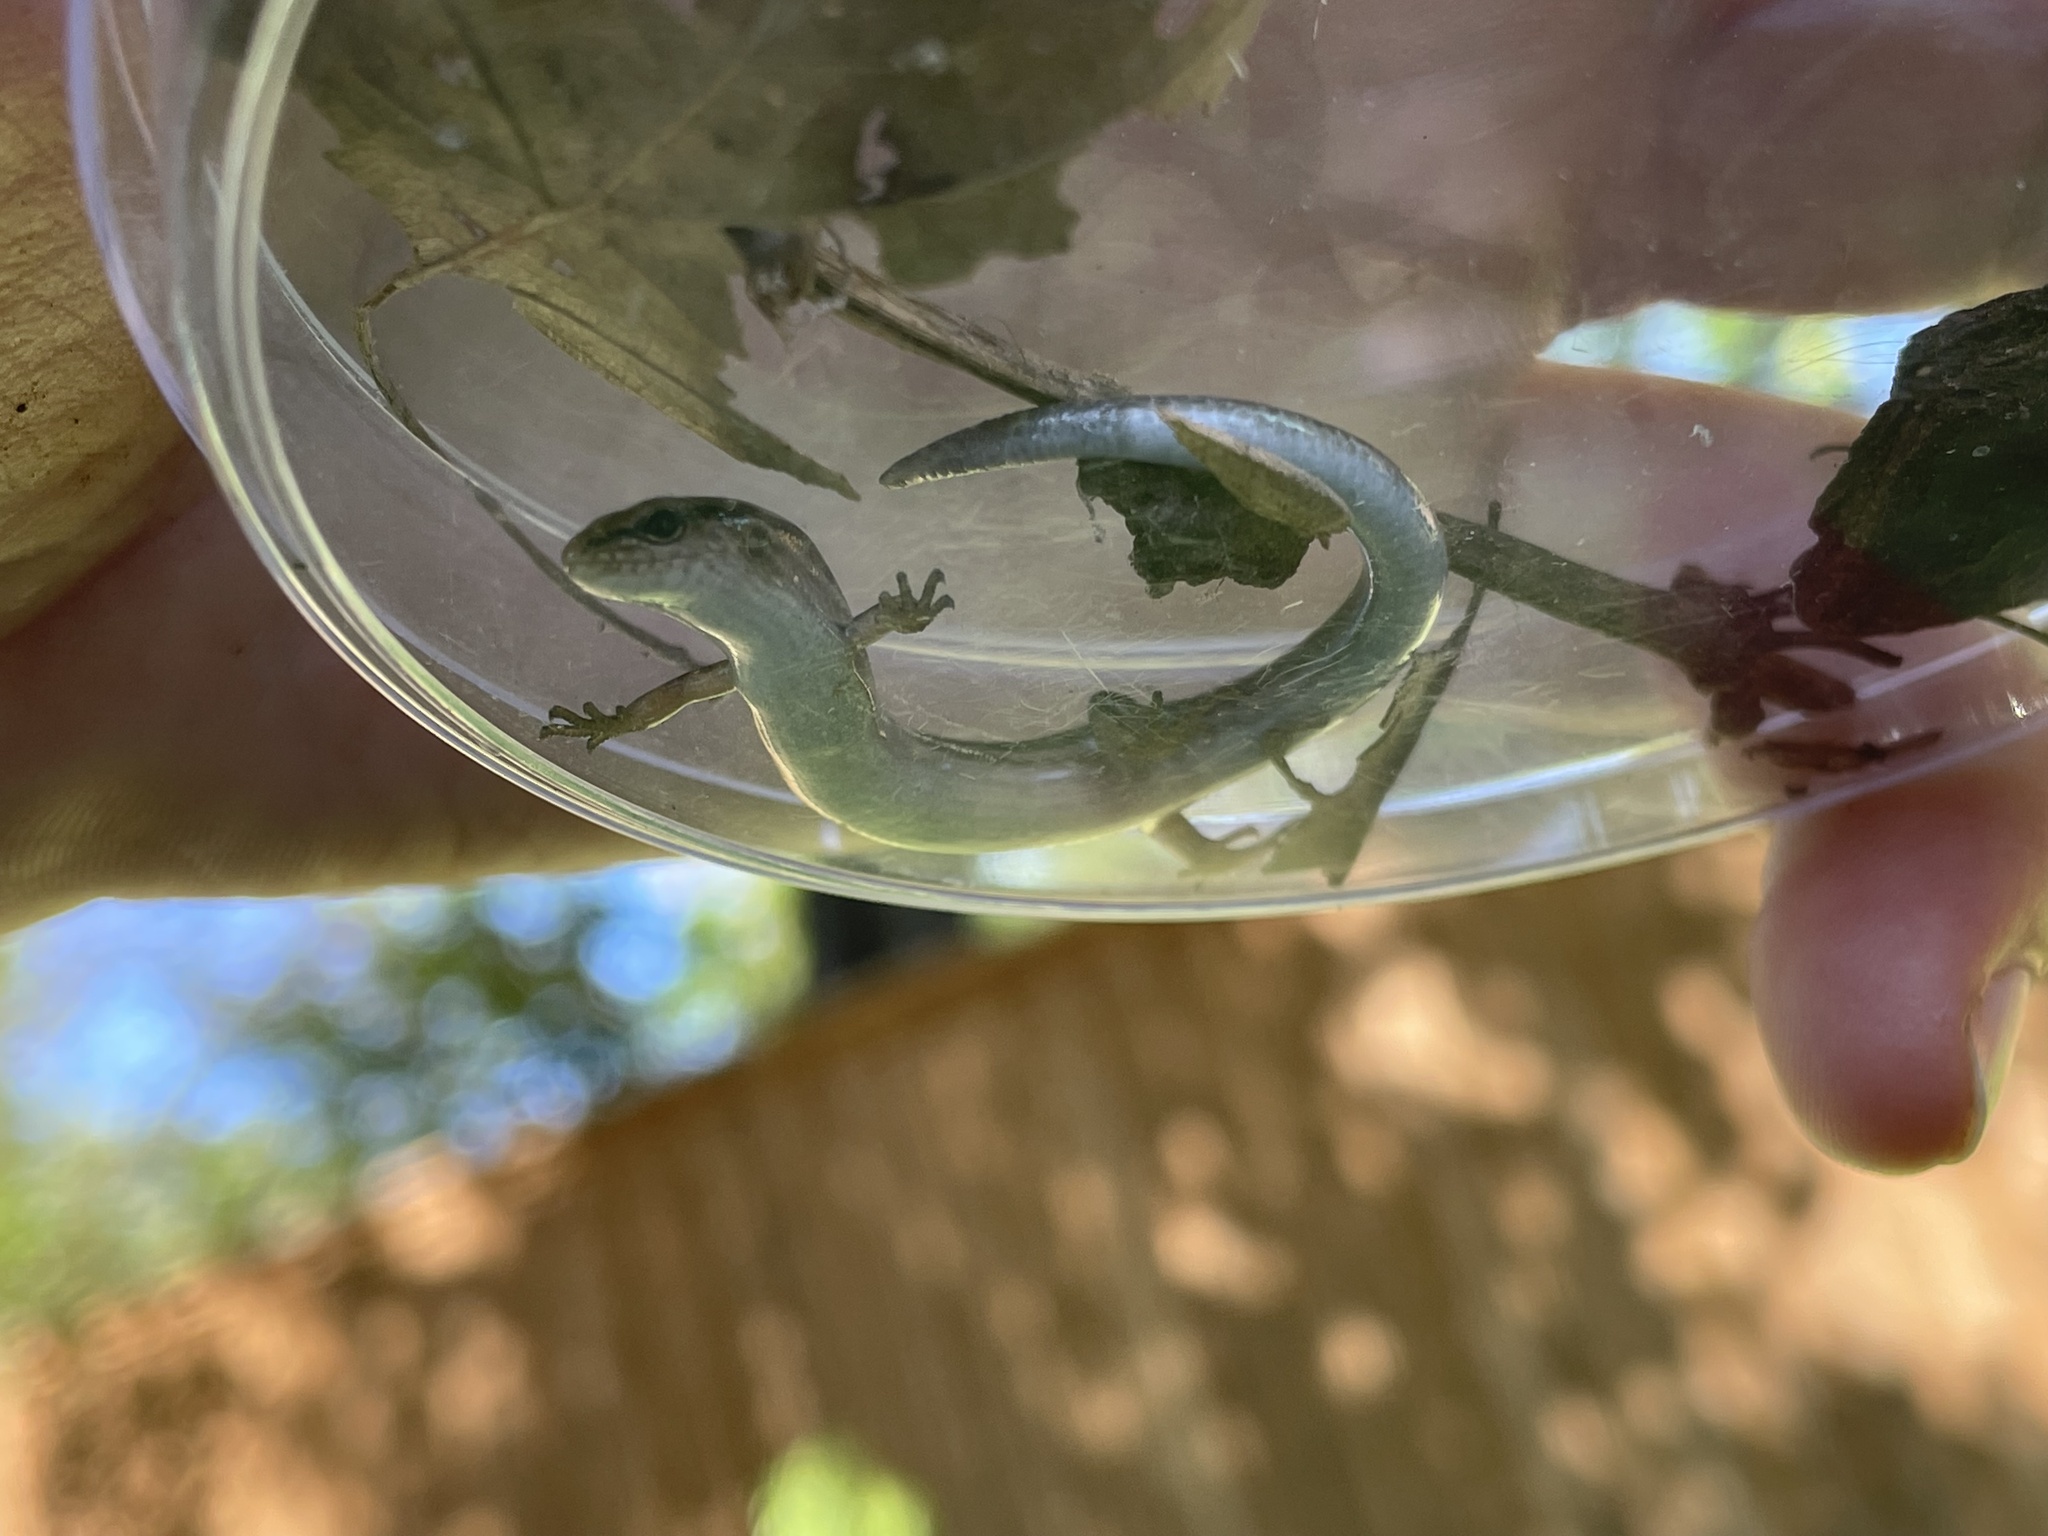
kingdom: Animalia
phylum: Chordata
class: Squamata
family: Scincidae
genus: Scincella
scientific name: Scincella lateralis
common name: Ground skink
